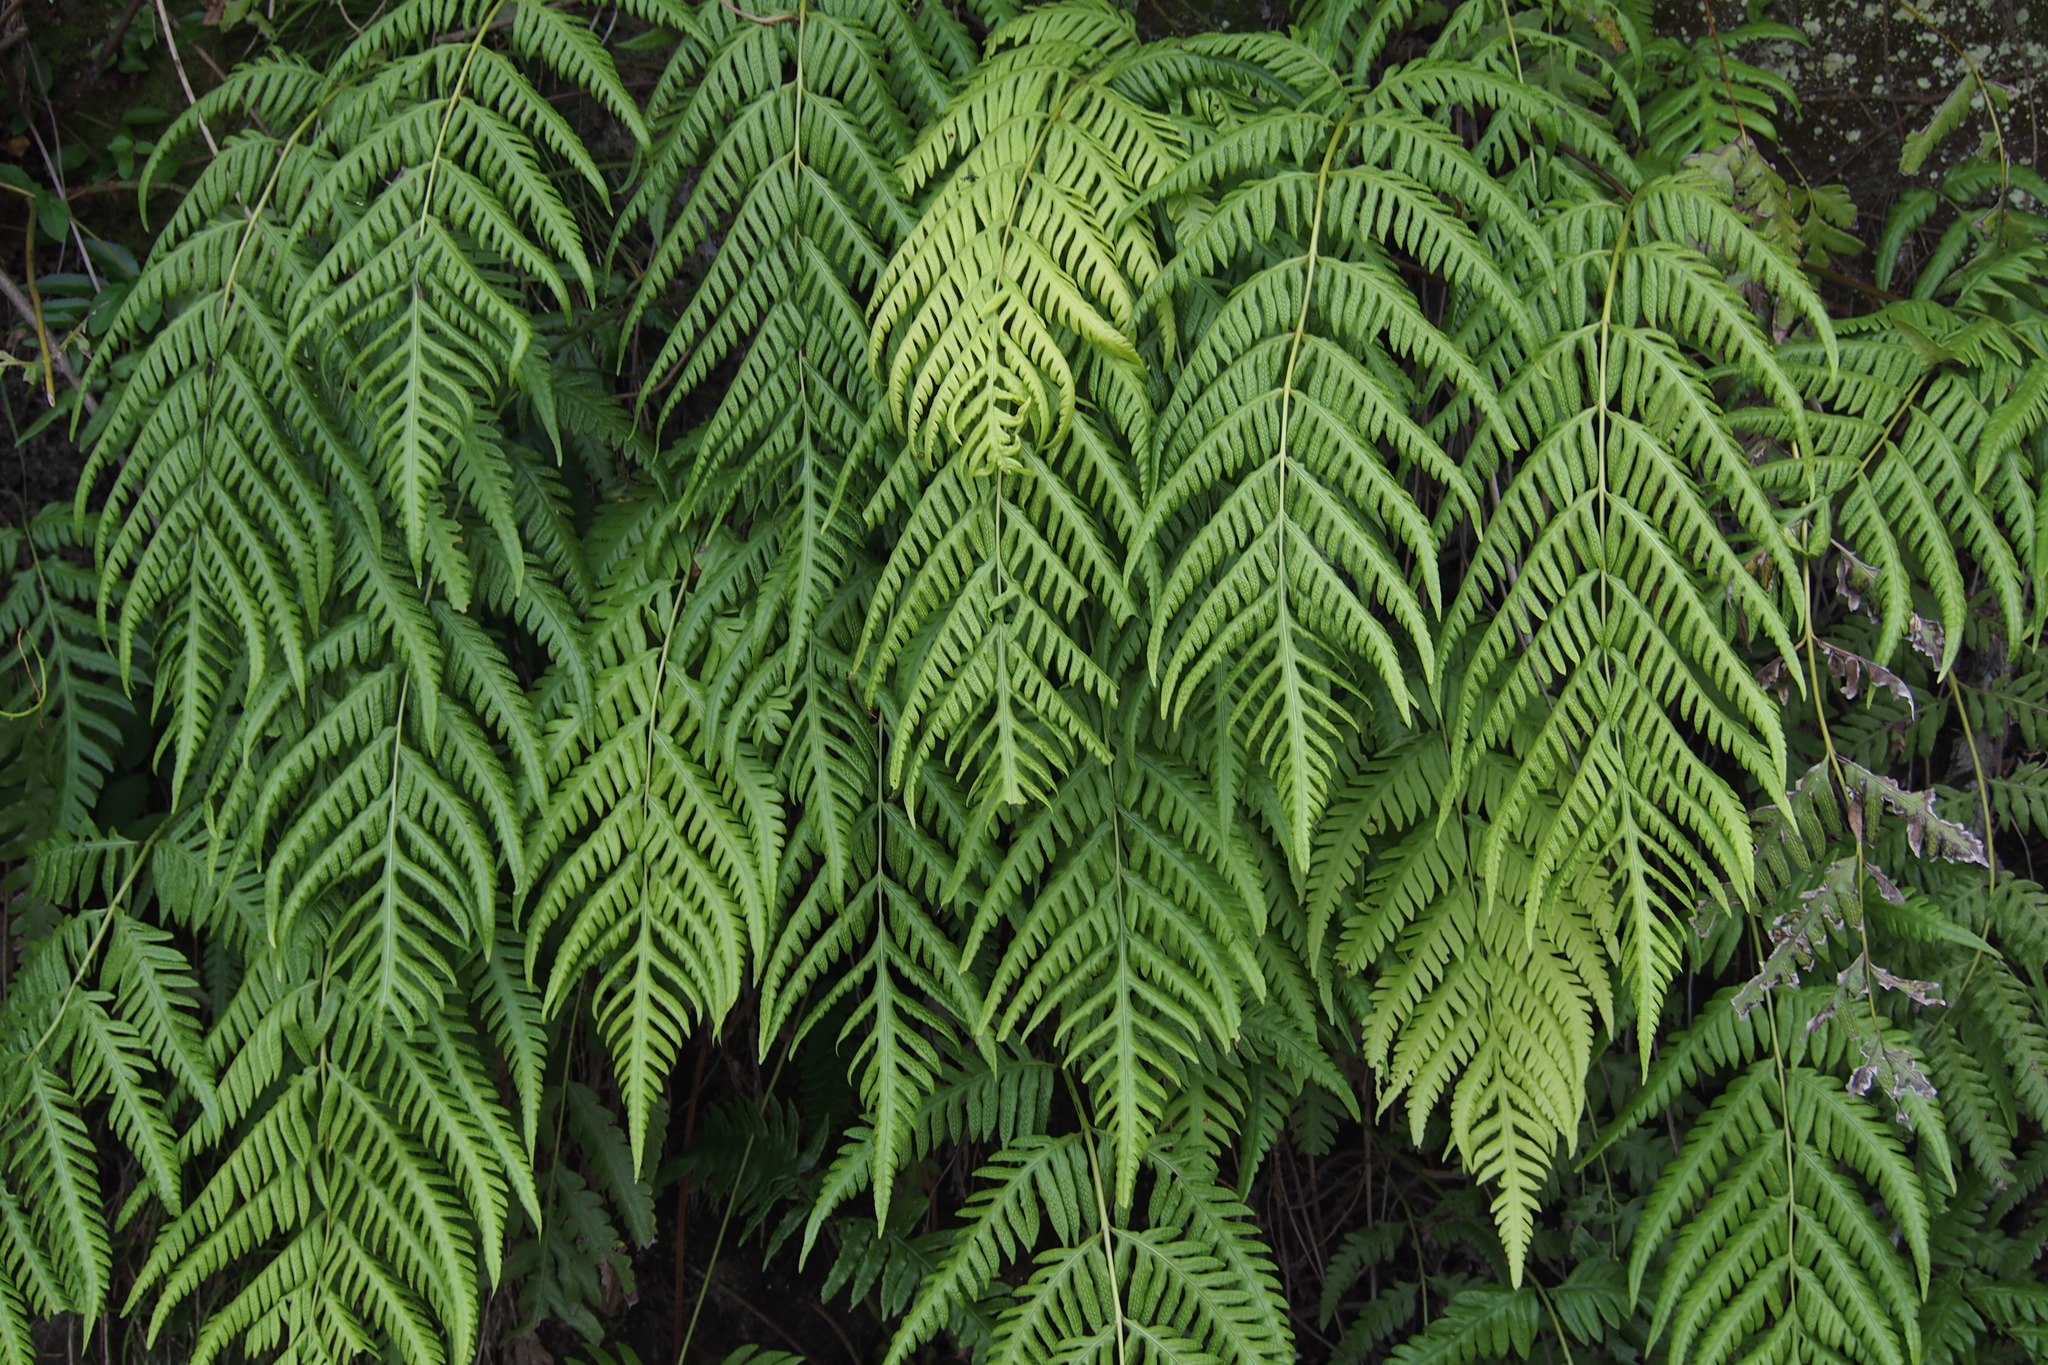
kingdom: Plantae
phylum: Tracheophyta
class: Polypodiopsida
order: Polypodiales
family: Blechnaceae
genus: Woodwardia
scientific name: Woodwardia orientalis
